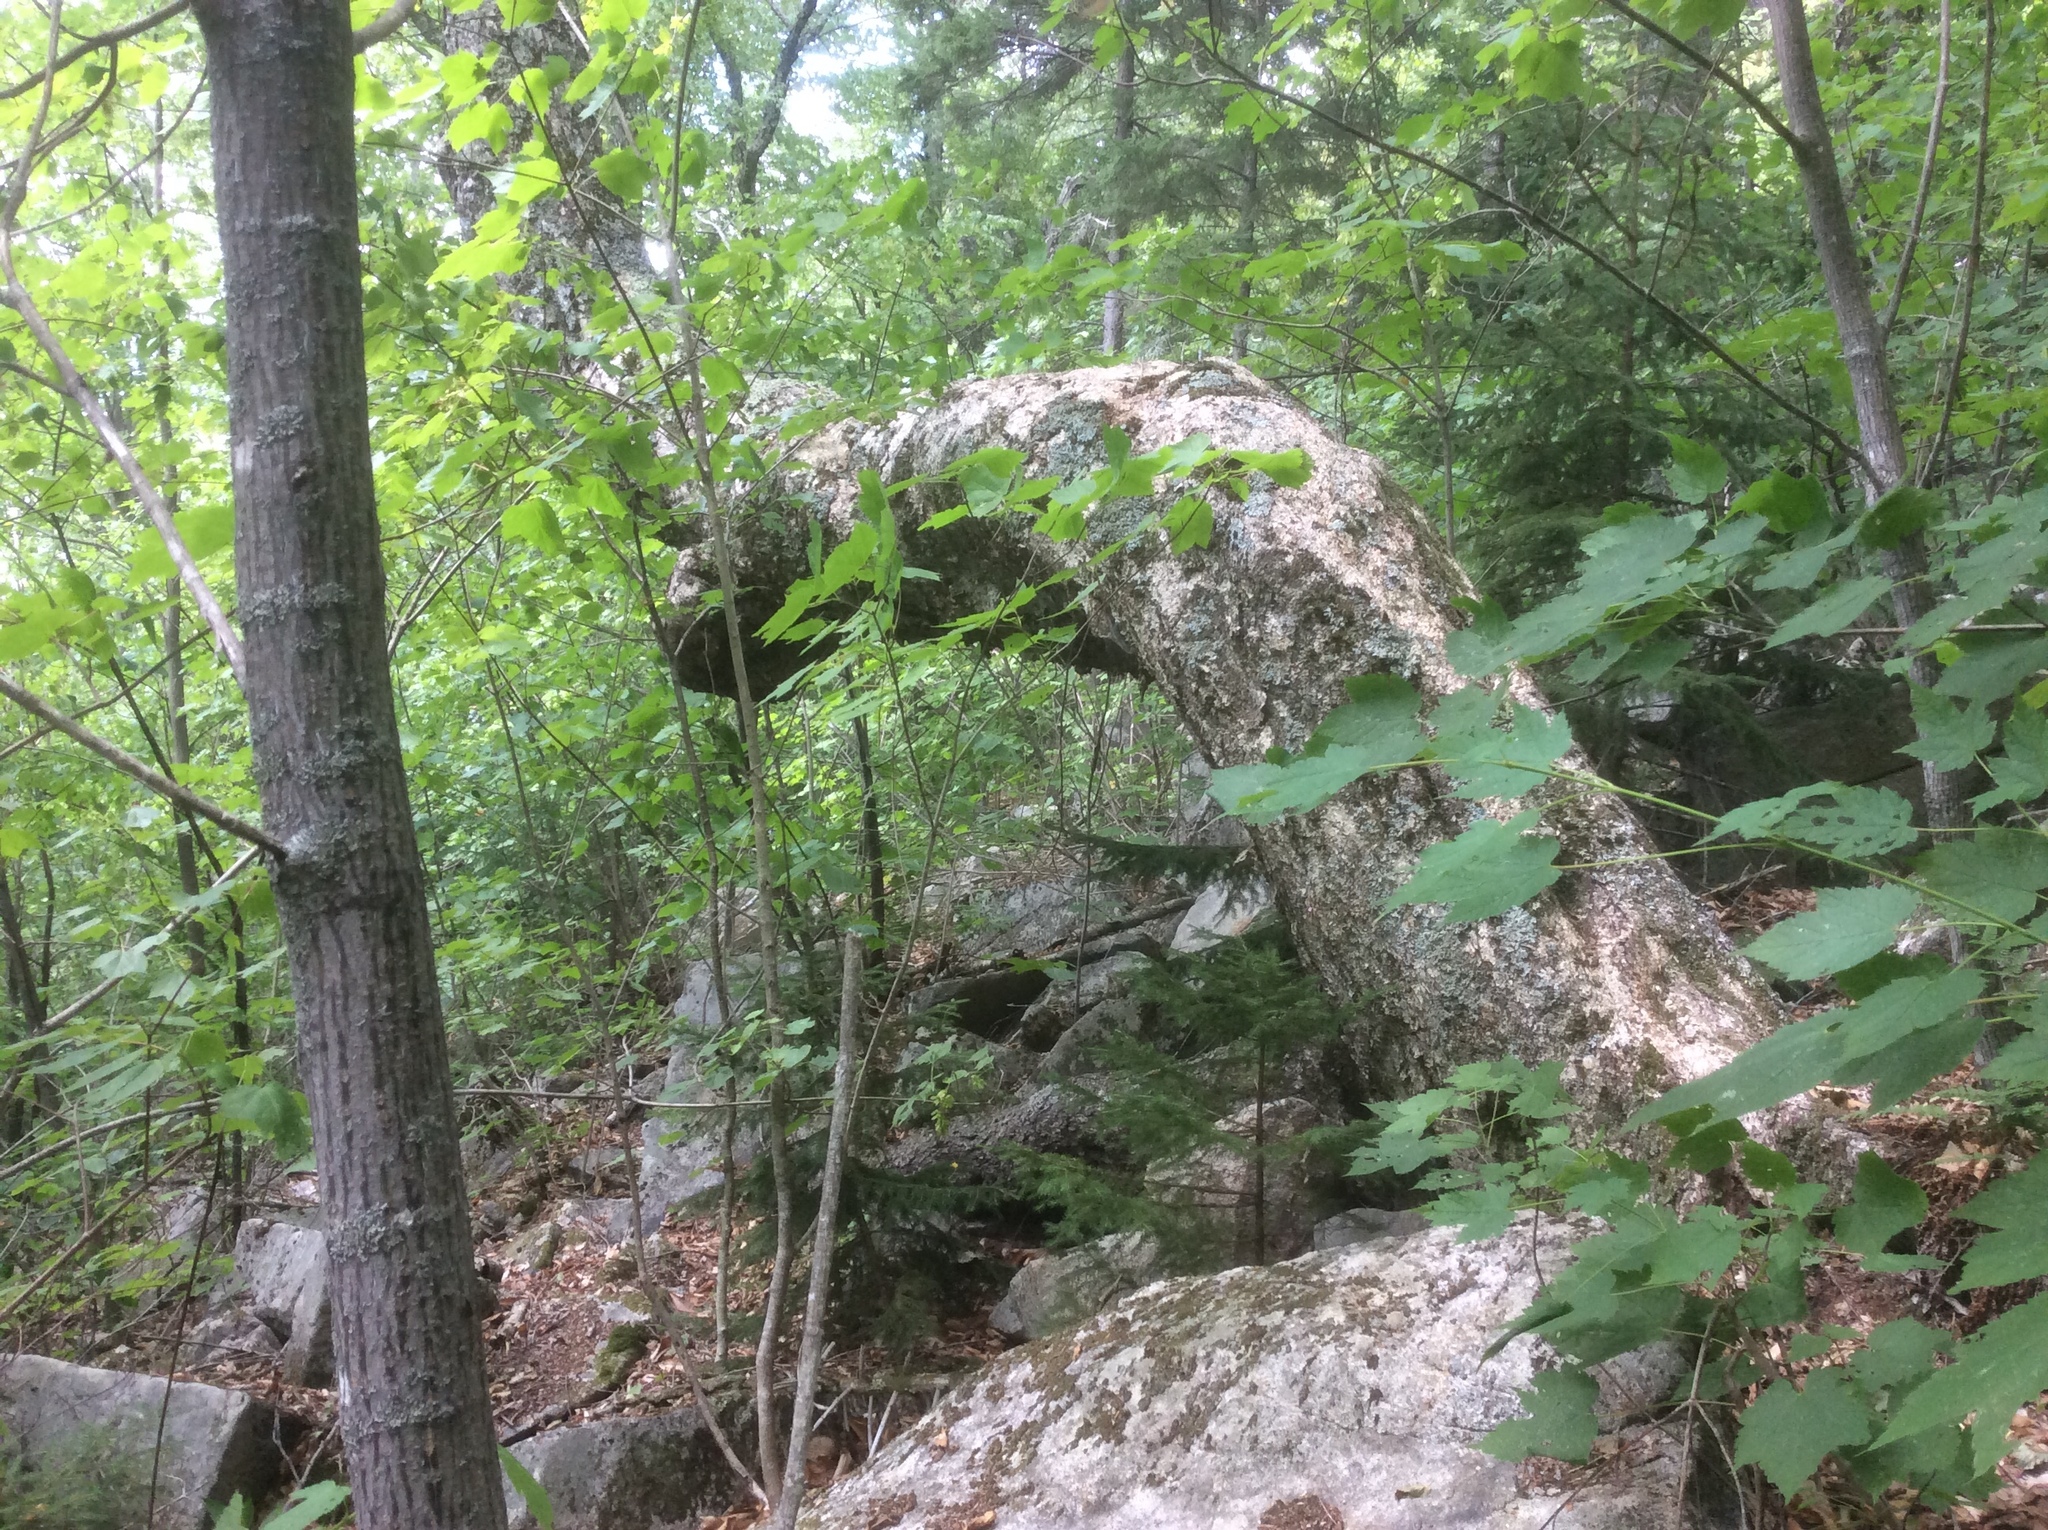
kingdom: Plantae
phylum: Tracheophyta
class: Magnoliopsida
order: Fagales
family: Betulaceae
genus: Betula
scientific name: Betula alleghaniensis
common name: Yellow birch
